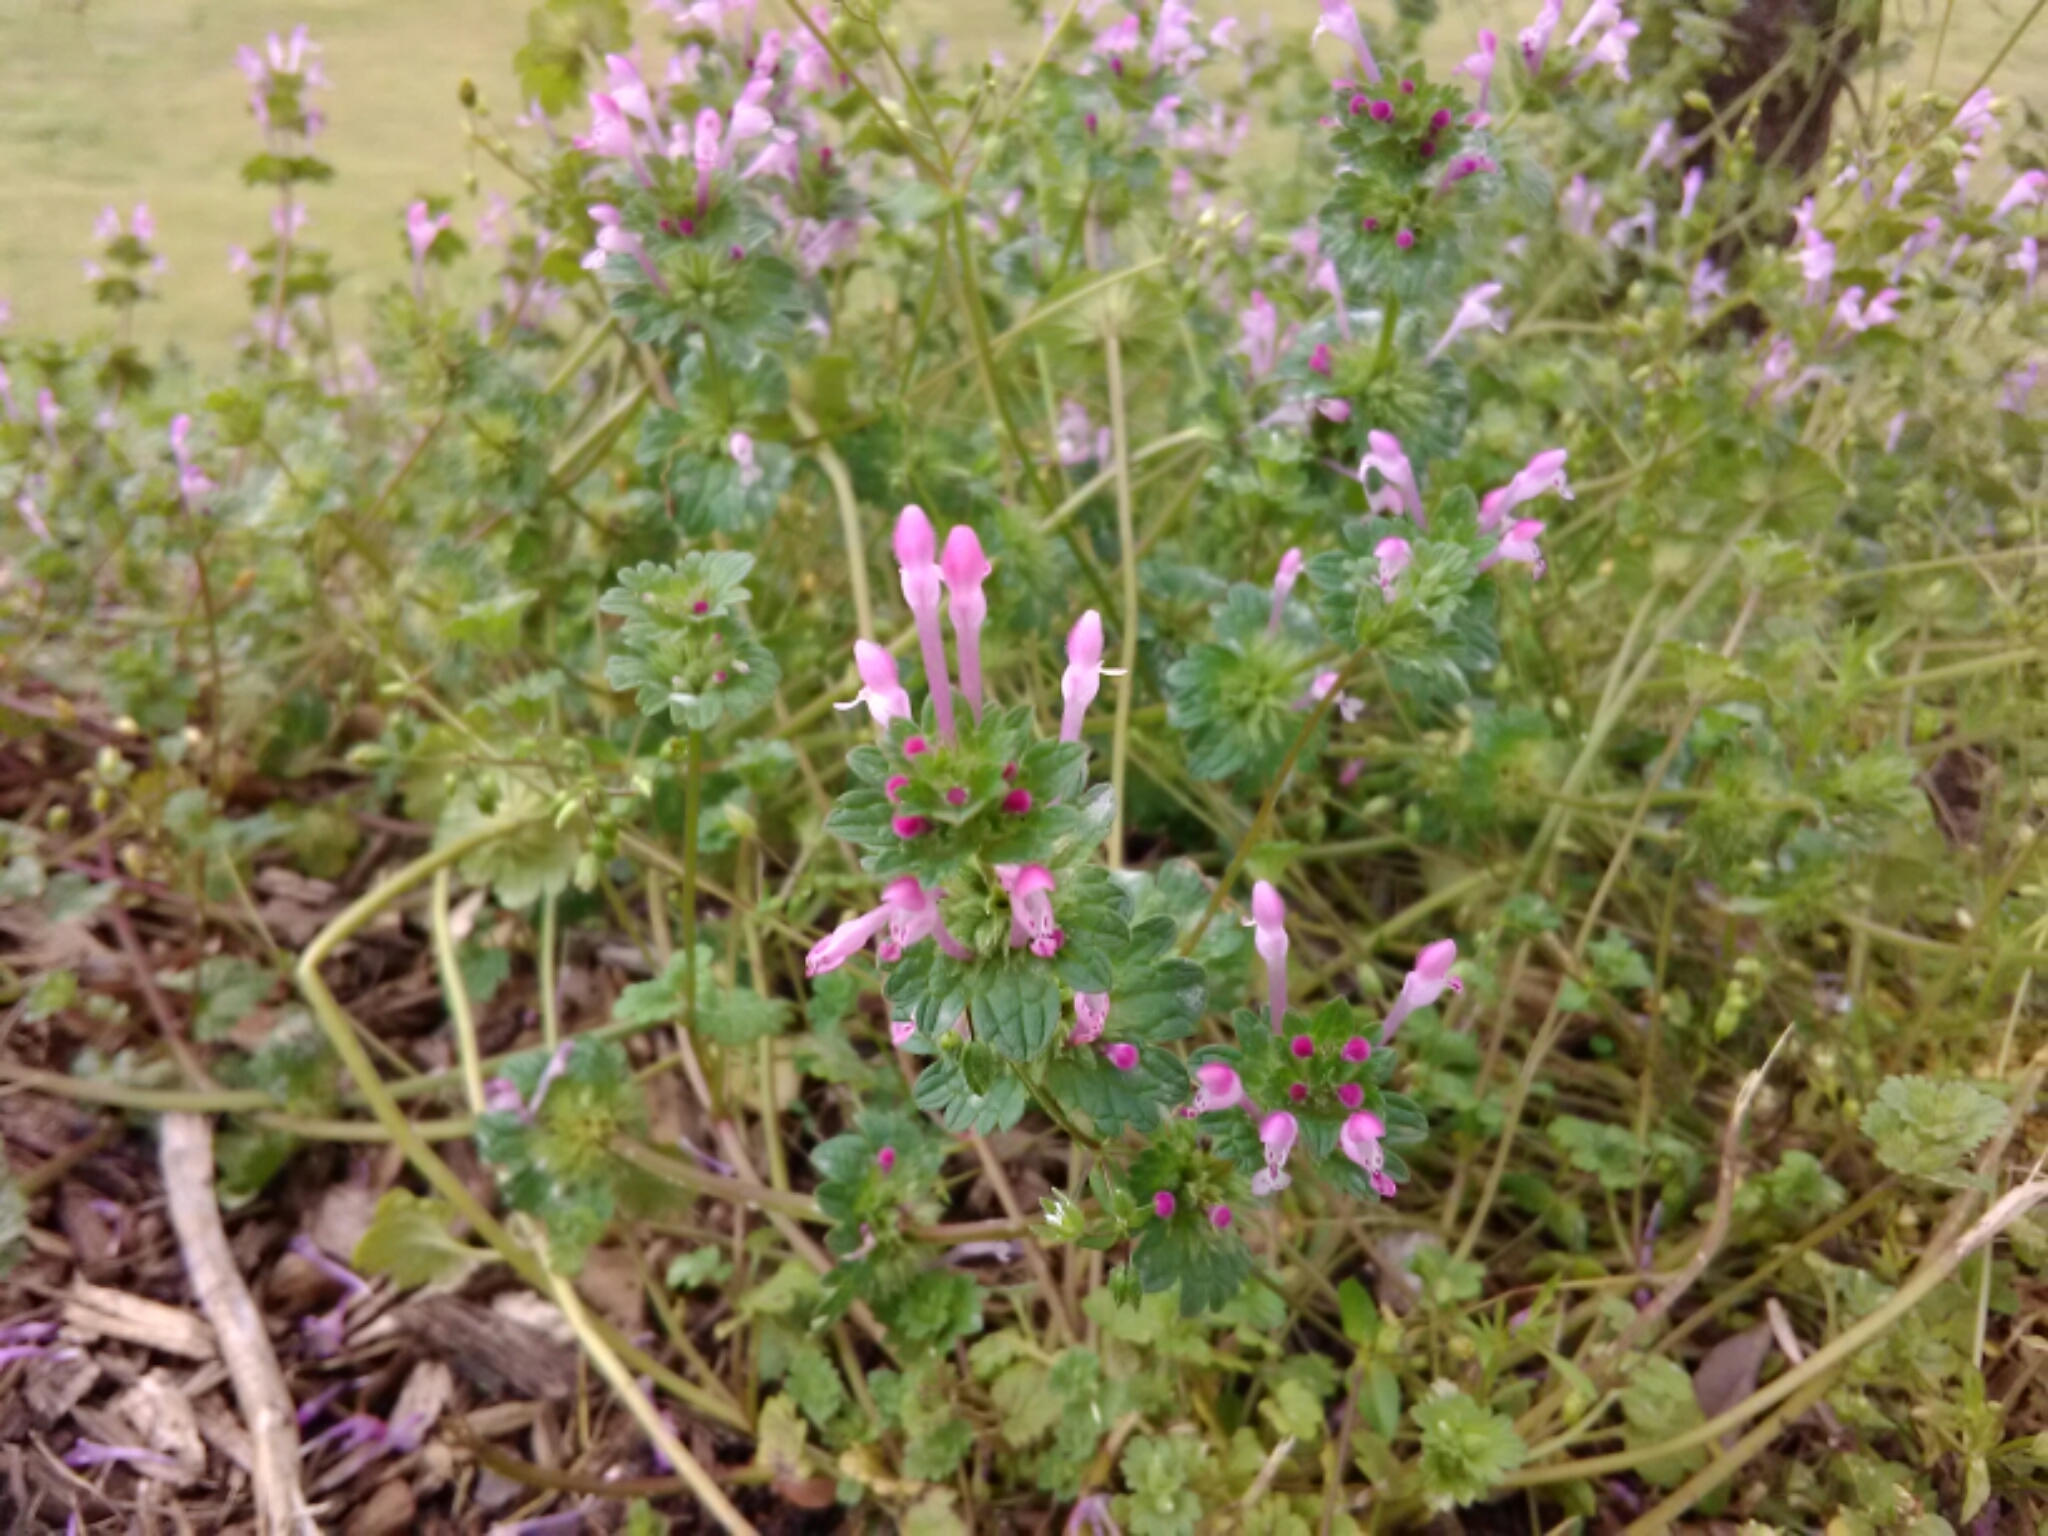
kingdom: Plantae
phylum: Tracheophyta
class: Magnoliopsida
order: Lamiales
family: Lamiaceae
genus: Lamium
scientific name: Lamium amplexicaule
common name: Henbit dead-nettle
